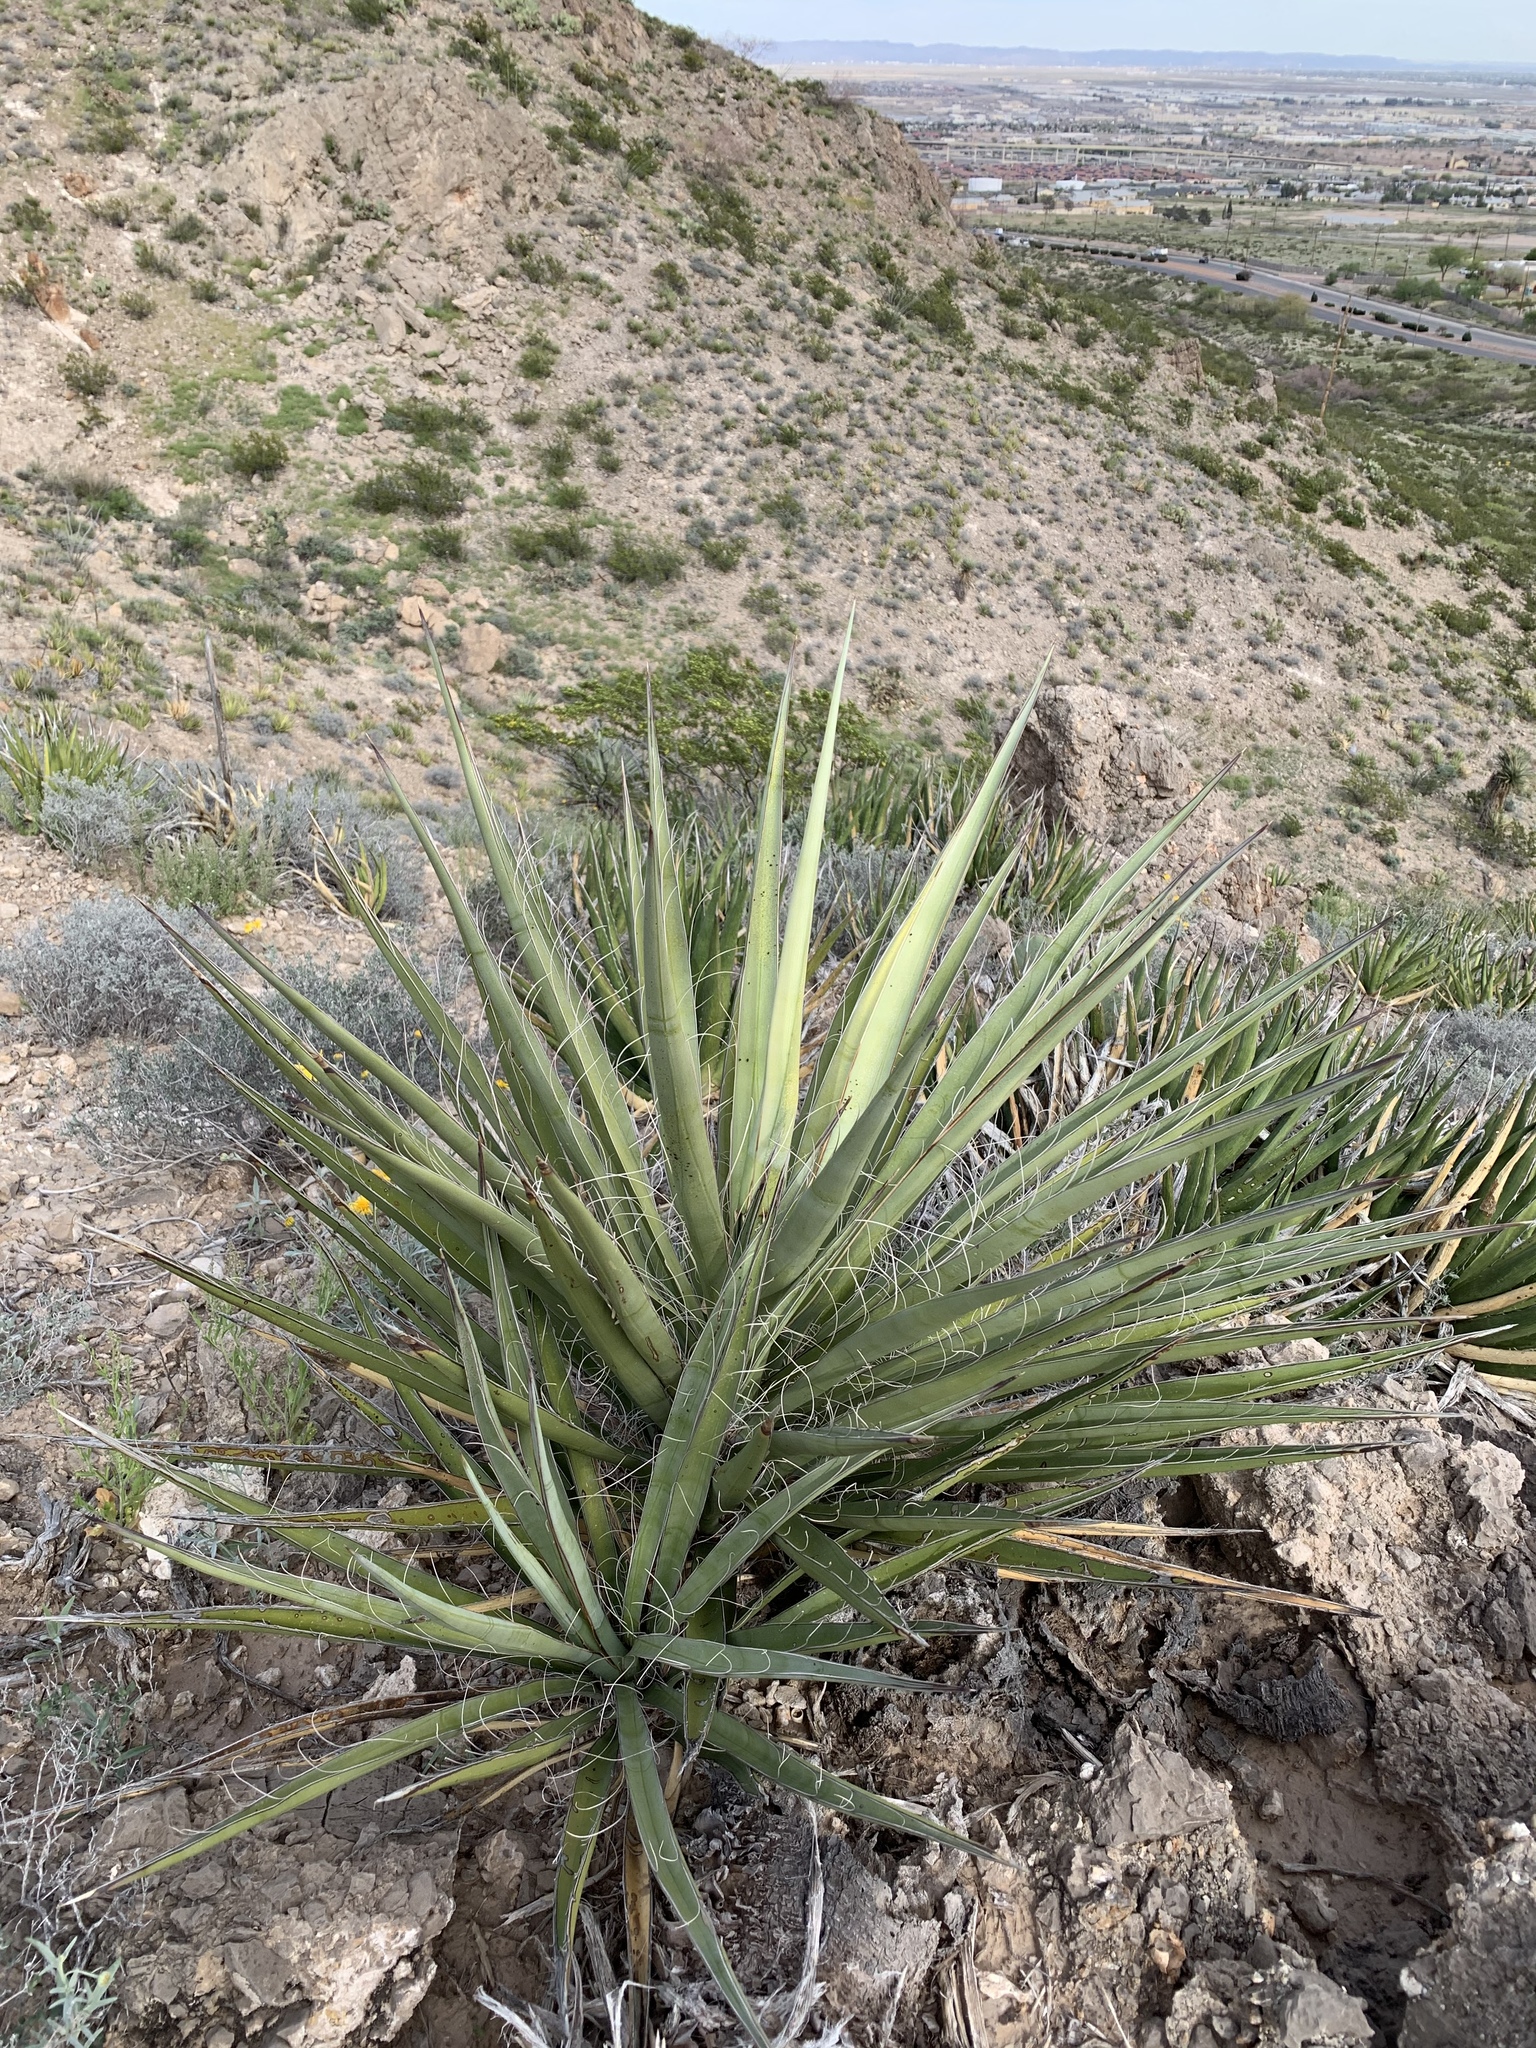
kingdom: Plantae
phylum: Tracheophyta
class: Liliopsida
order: Asparagales
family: Asparagaceae
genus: Yucca
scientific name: Yucca treculiana
